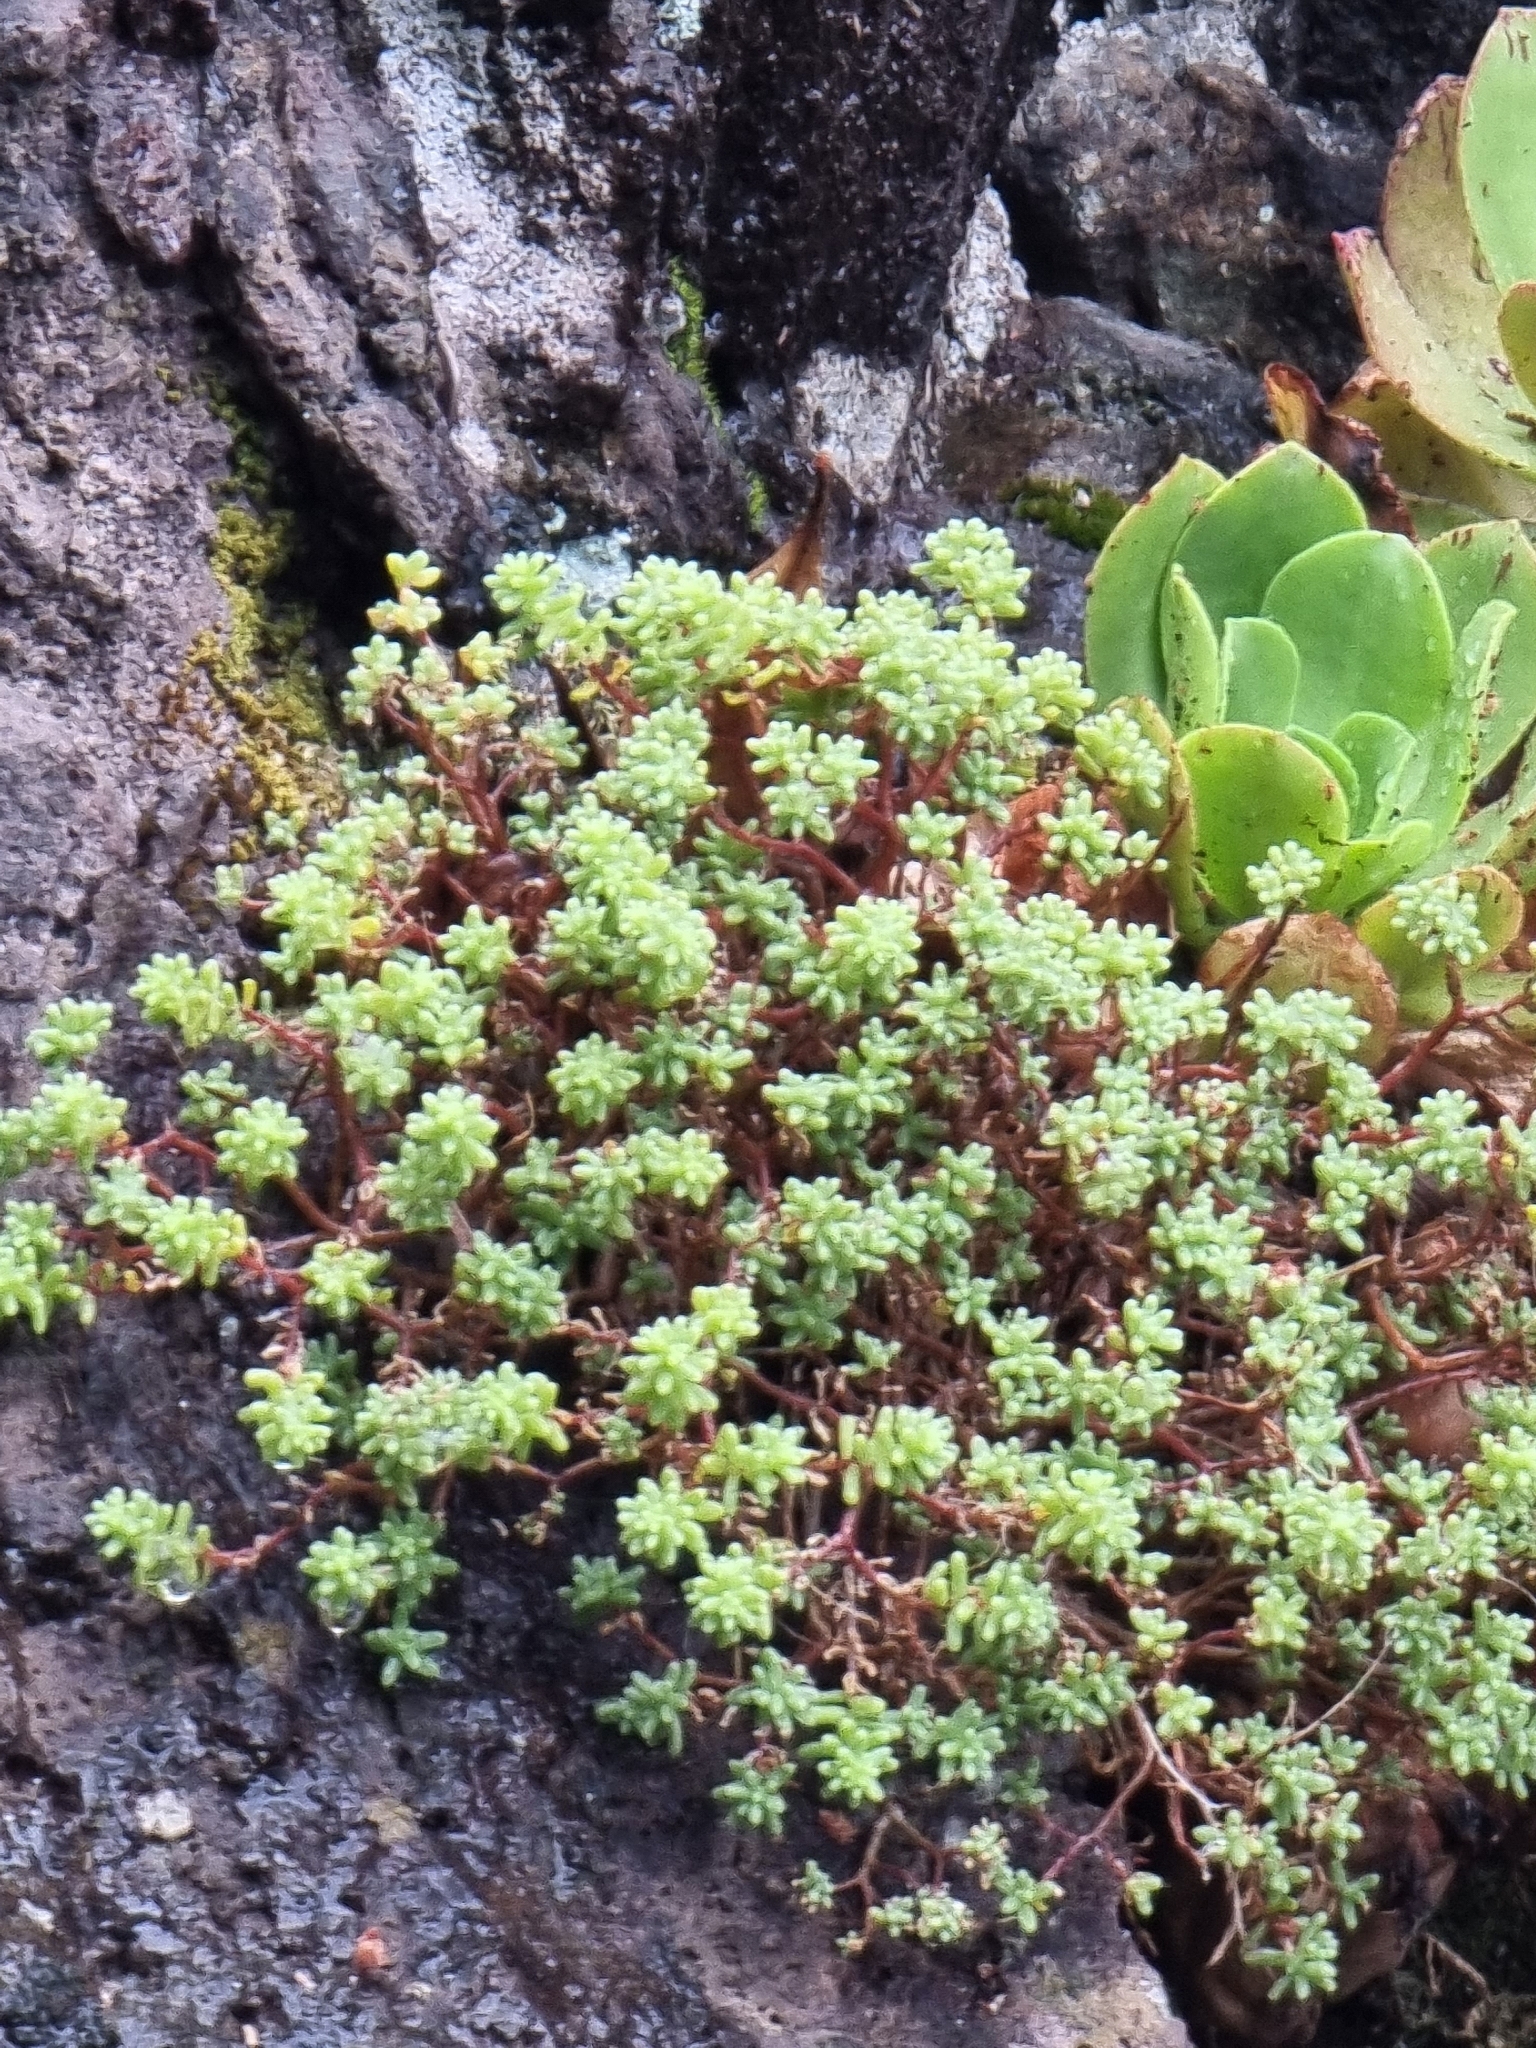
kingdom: Plantae
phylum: Tracheophyta
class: Magnoliopsida
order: Saxifragales
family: Crassulaceae
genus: Sedum
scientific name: Sedum brissemoretii
